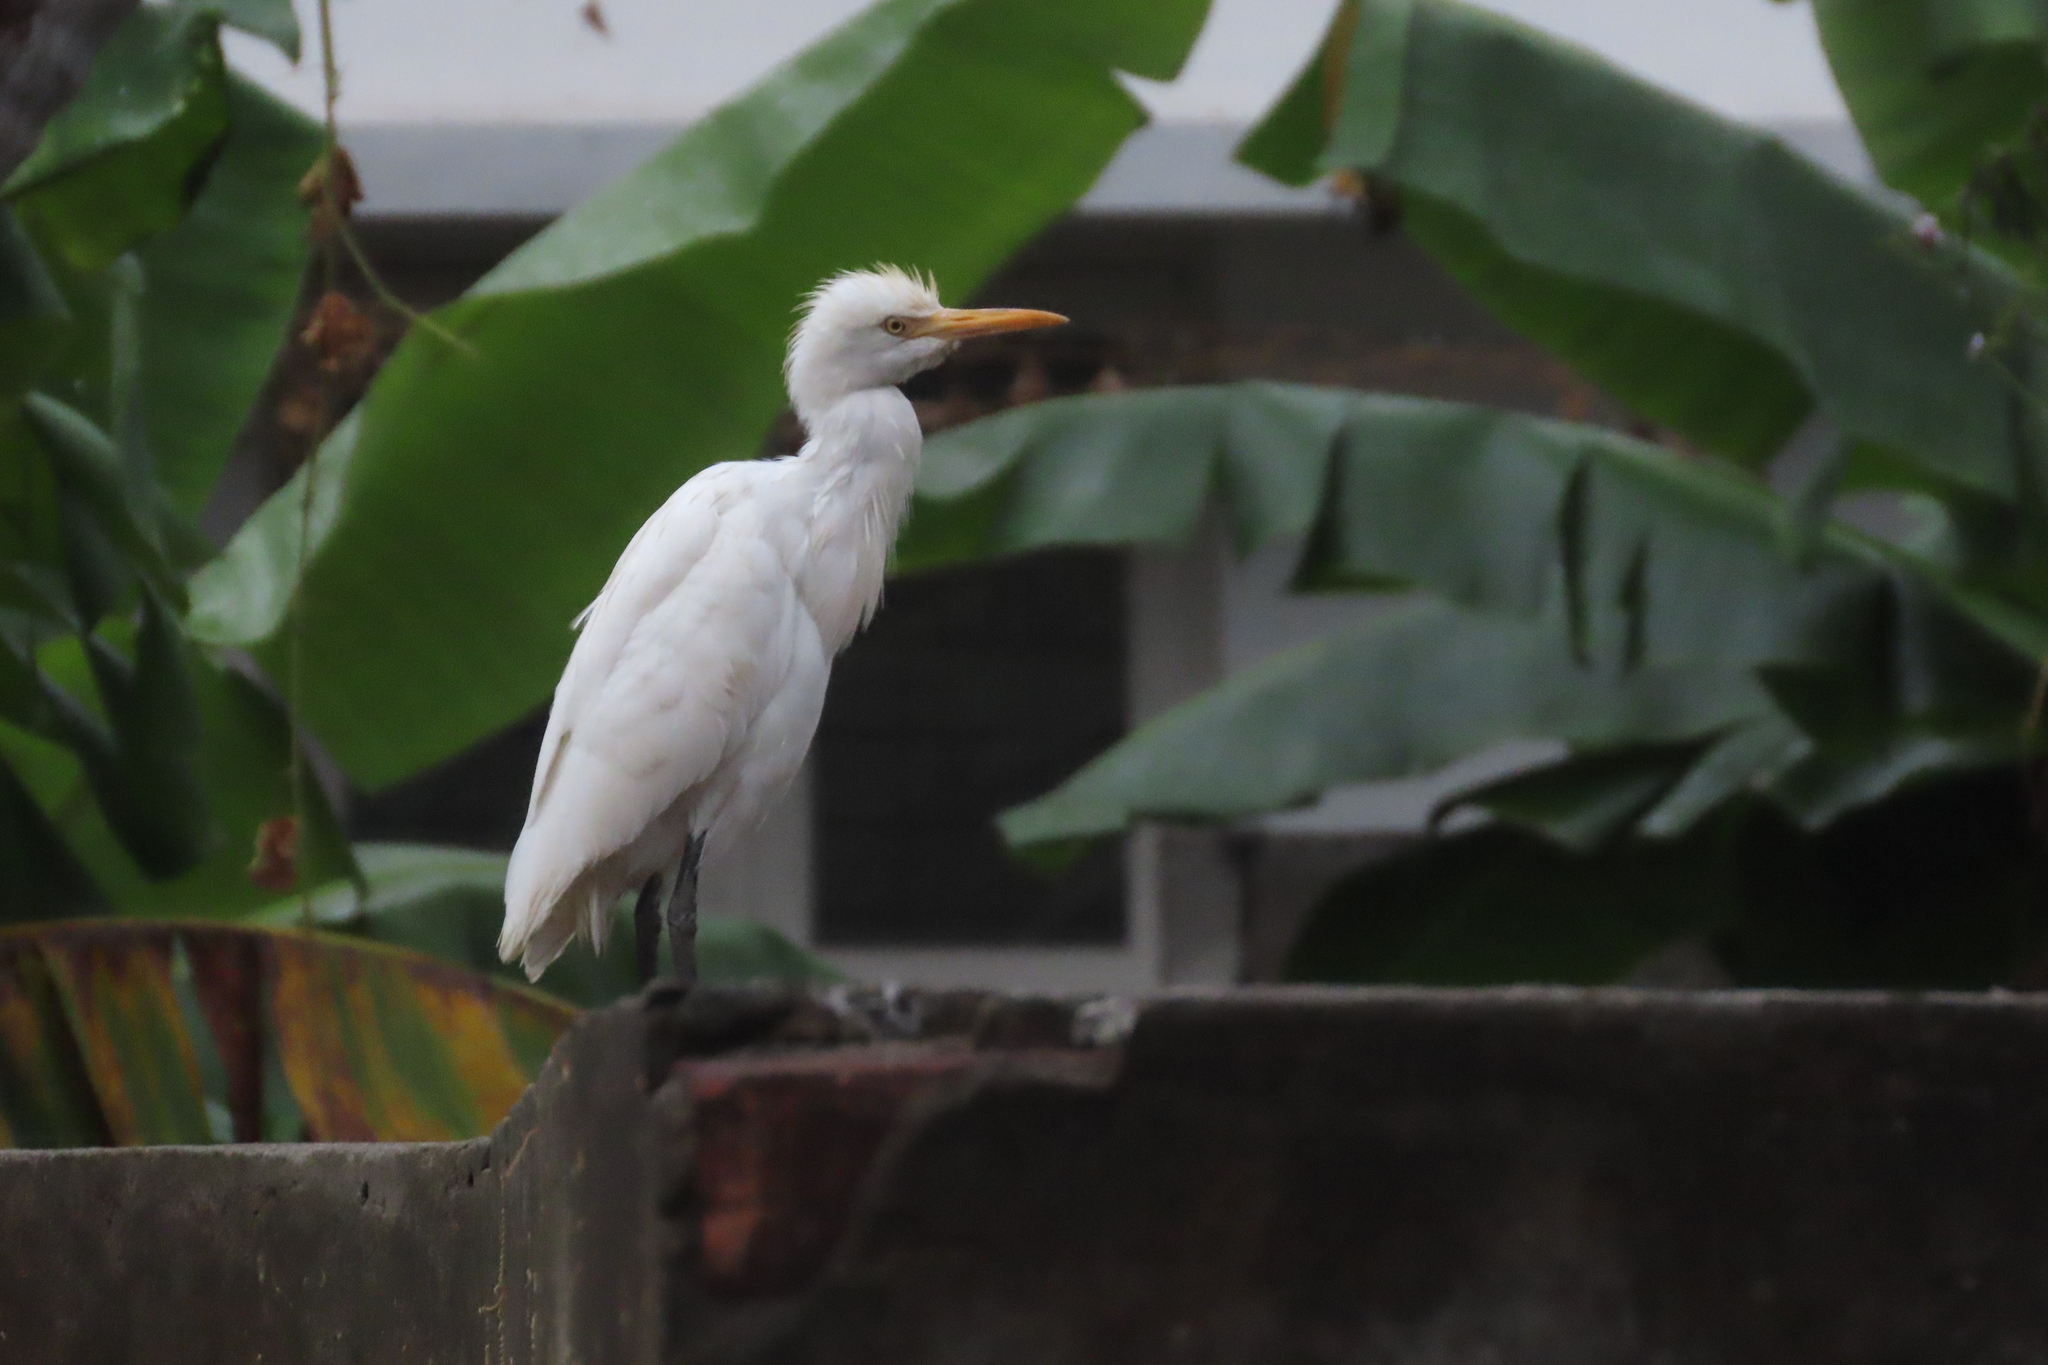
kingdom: Animalia
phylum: Chordata
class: Aves
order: Pelecaniformes
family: Ardeidae
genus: Bubulcus
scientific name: Bubulcus coromandus
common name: Eastern cattle egret
